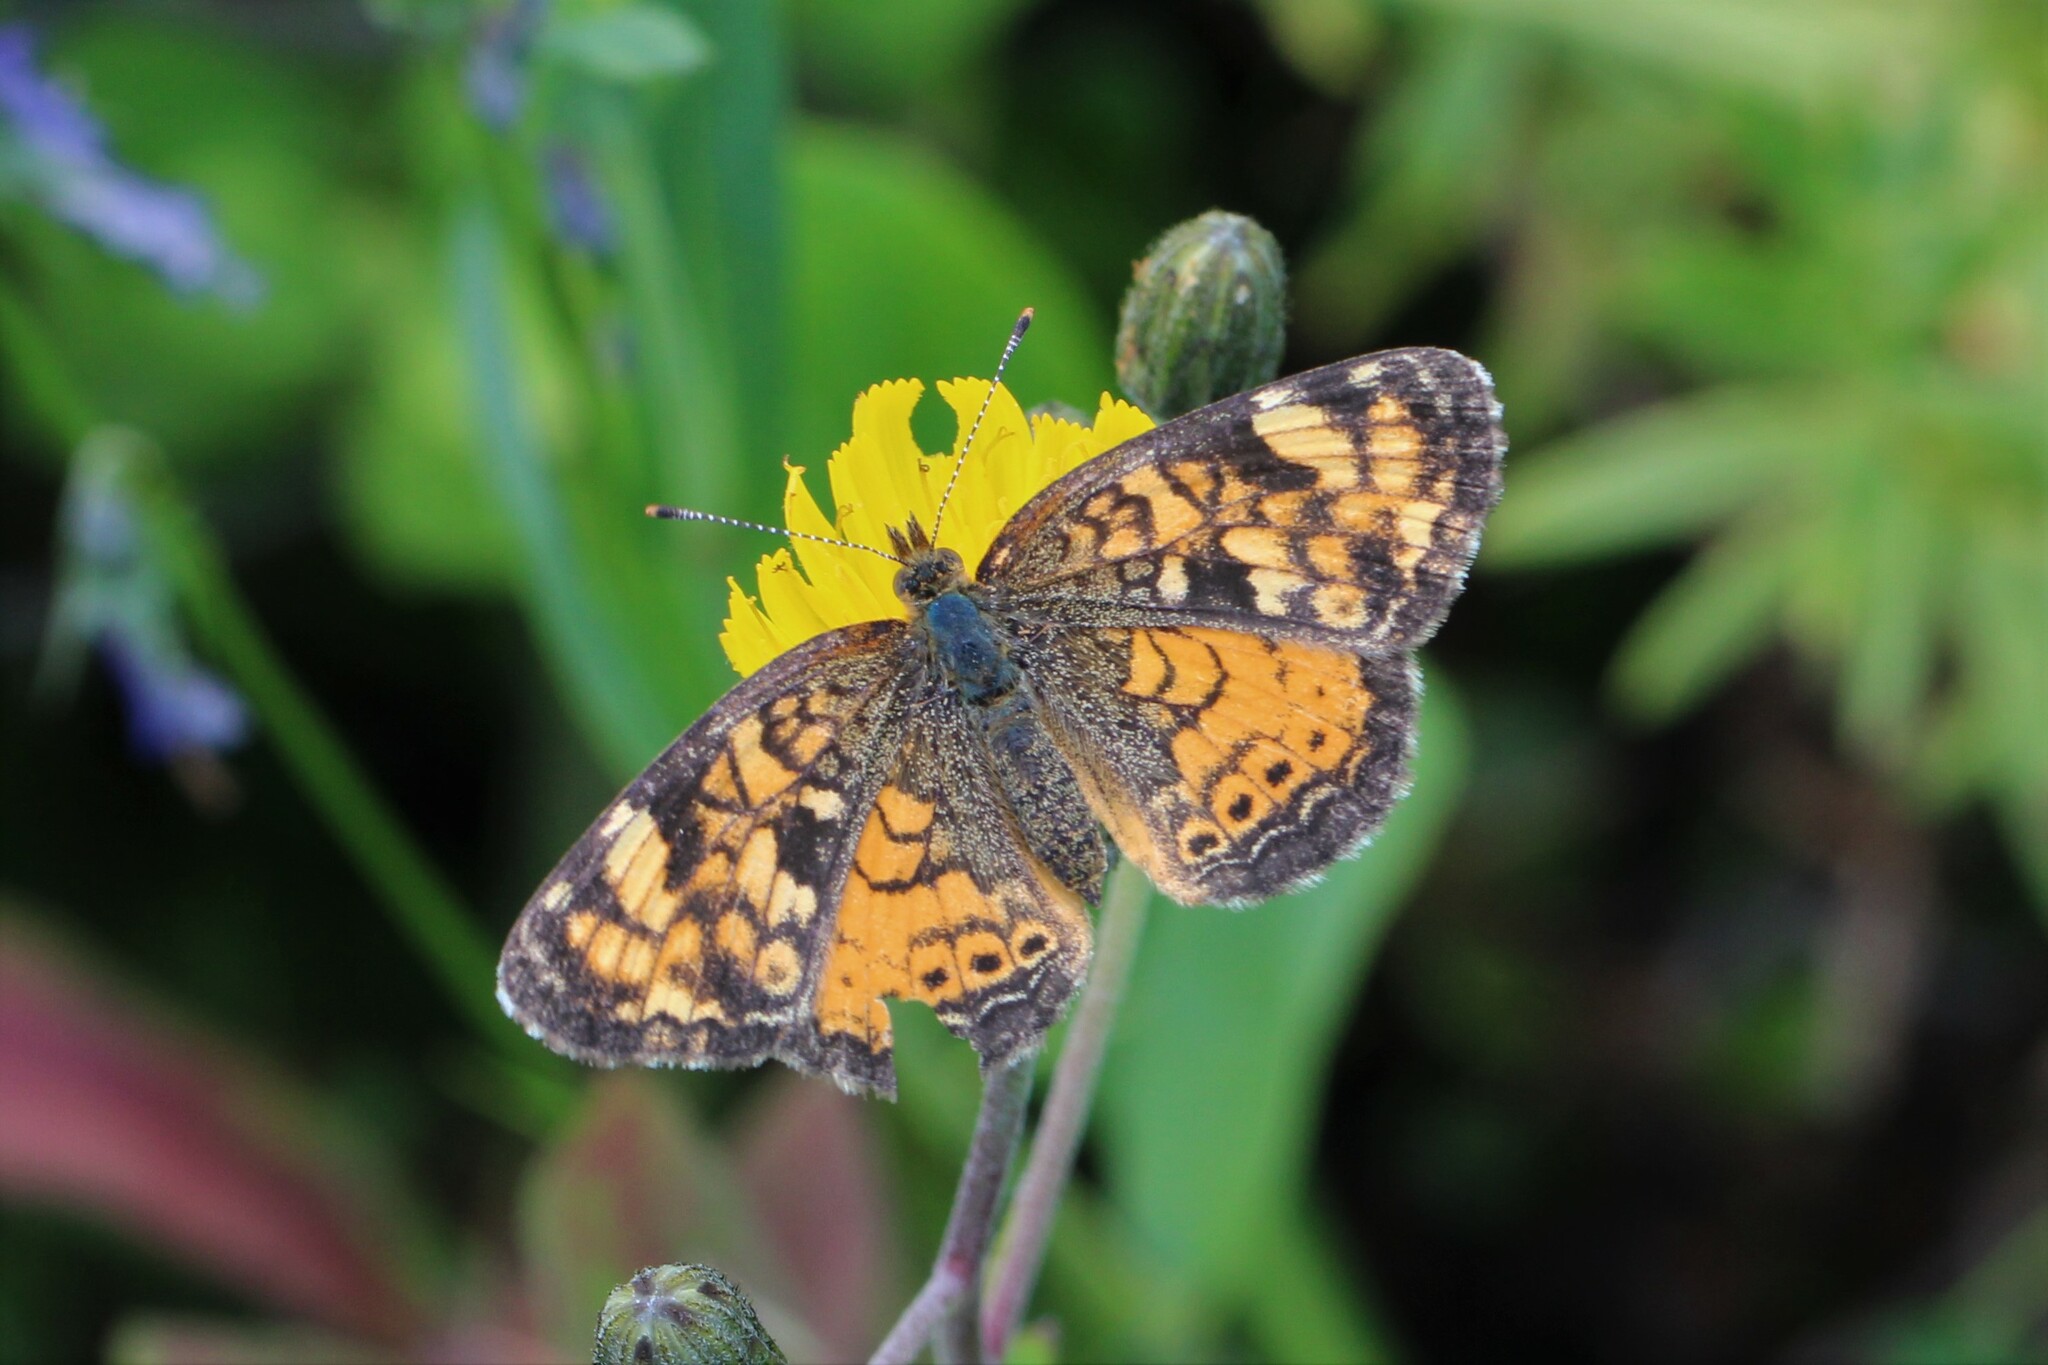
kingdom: Animalia
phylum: Arthropoda
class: Insecta
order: Lepidoptera
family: Nymphalidae
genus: Phyciodes
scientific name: Phyciodes tharos
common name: Pearl crescent
